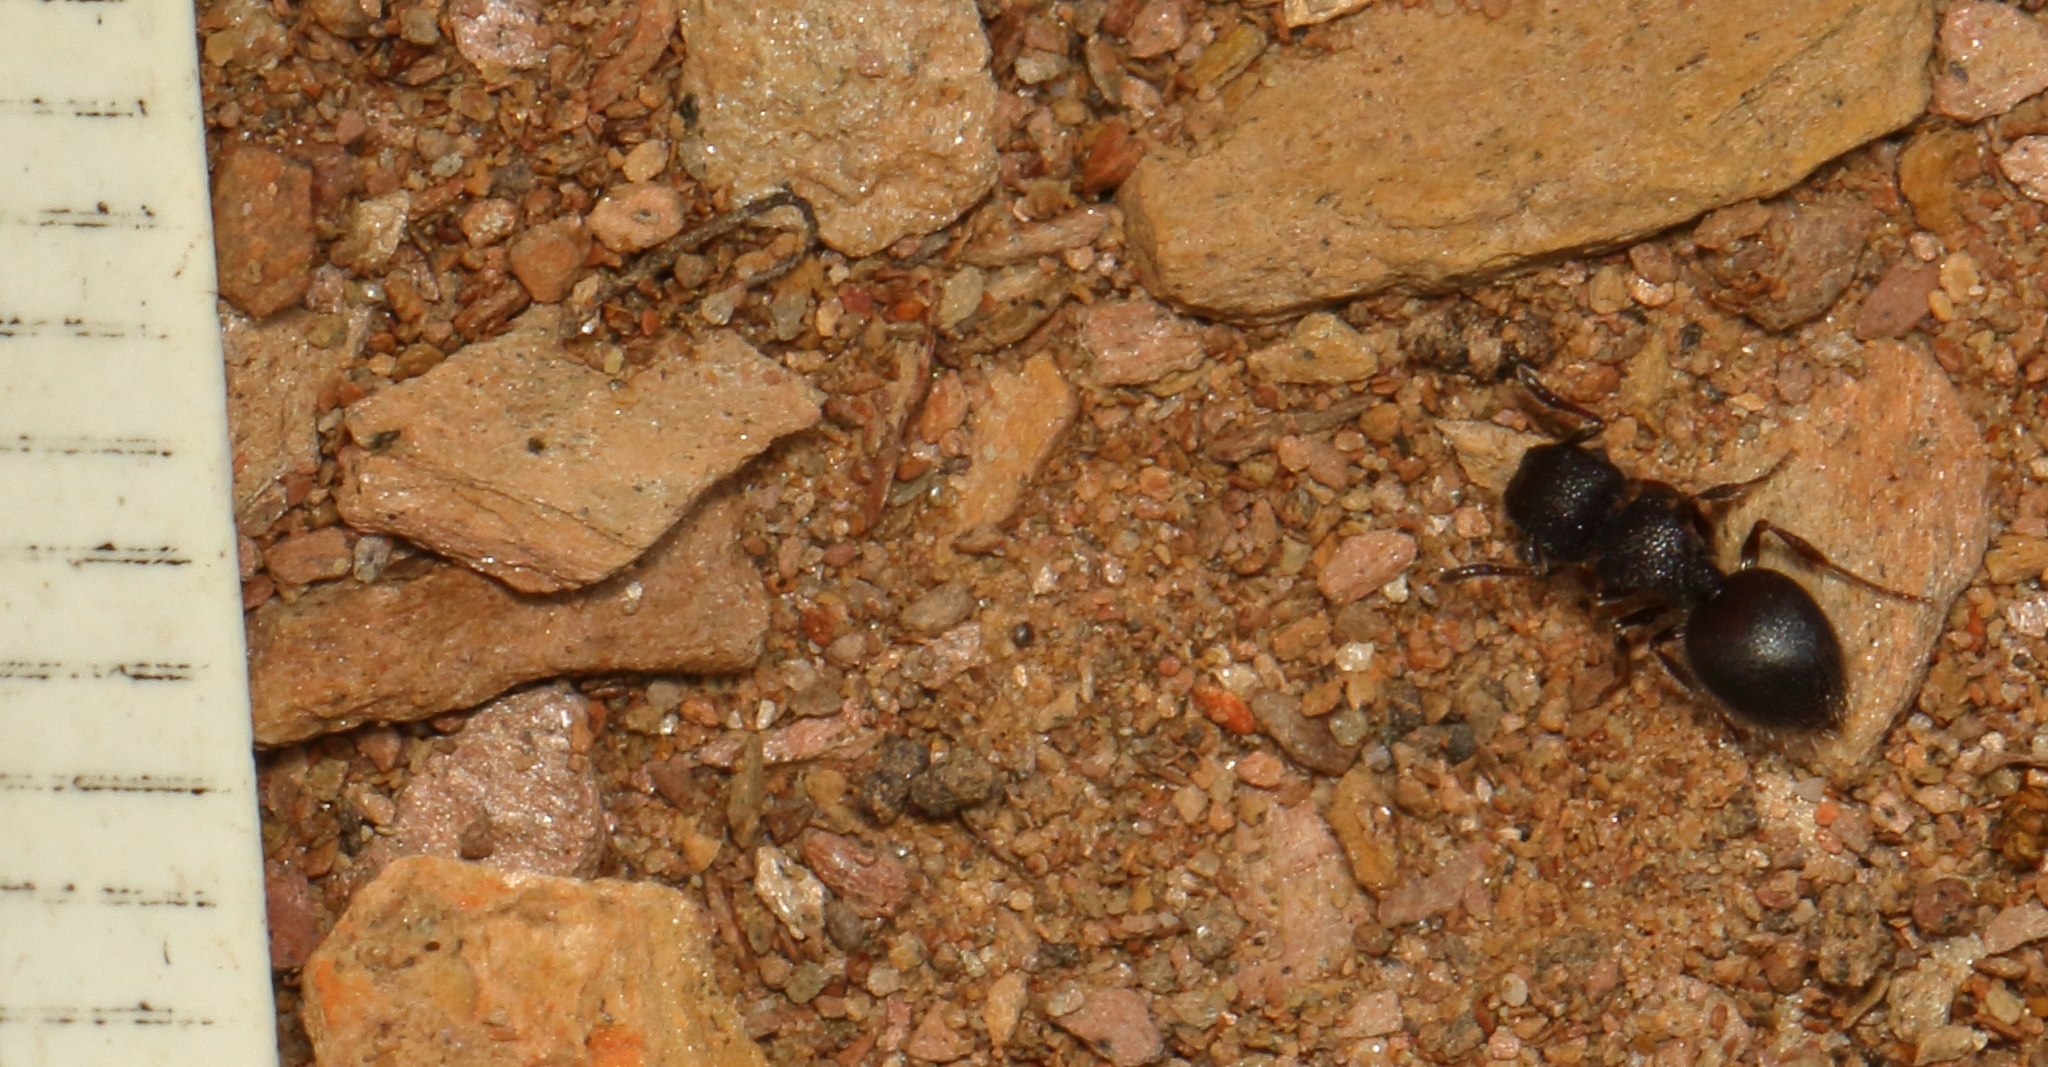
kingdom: Animalia
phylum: Arthropoda
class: Insecta
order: Hymenoptera
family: Formicidae
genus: Meranoplus
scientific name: Meranoplus peringueyi
